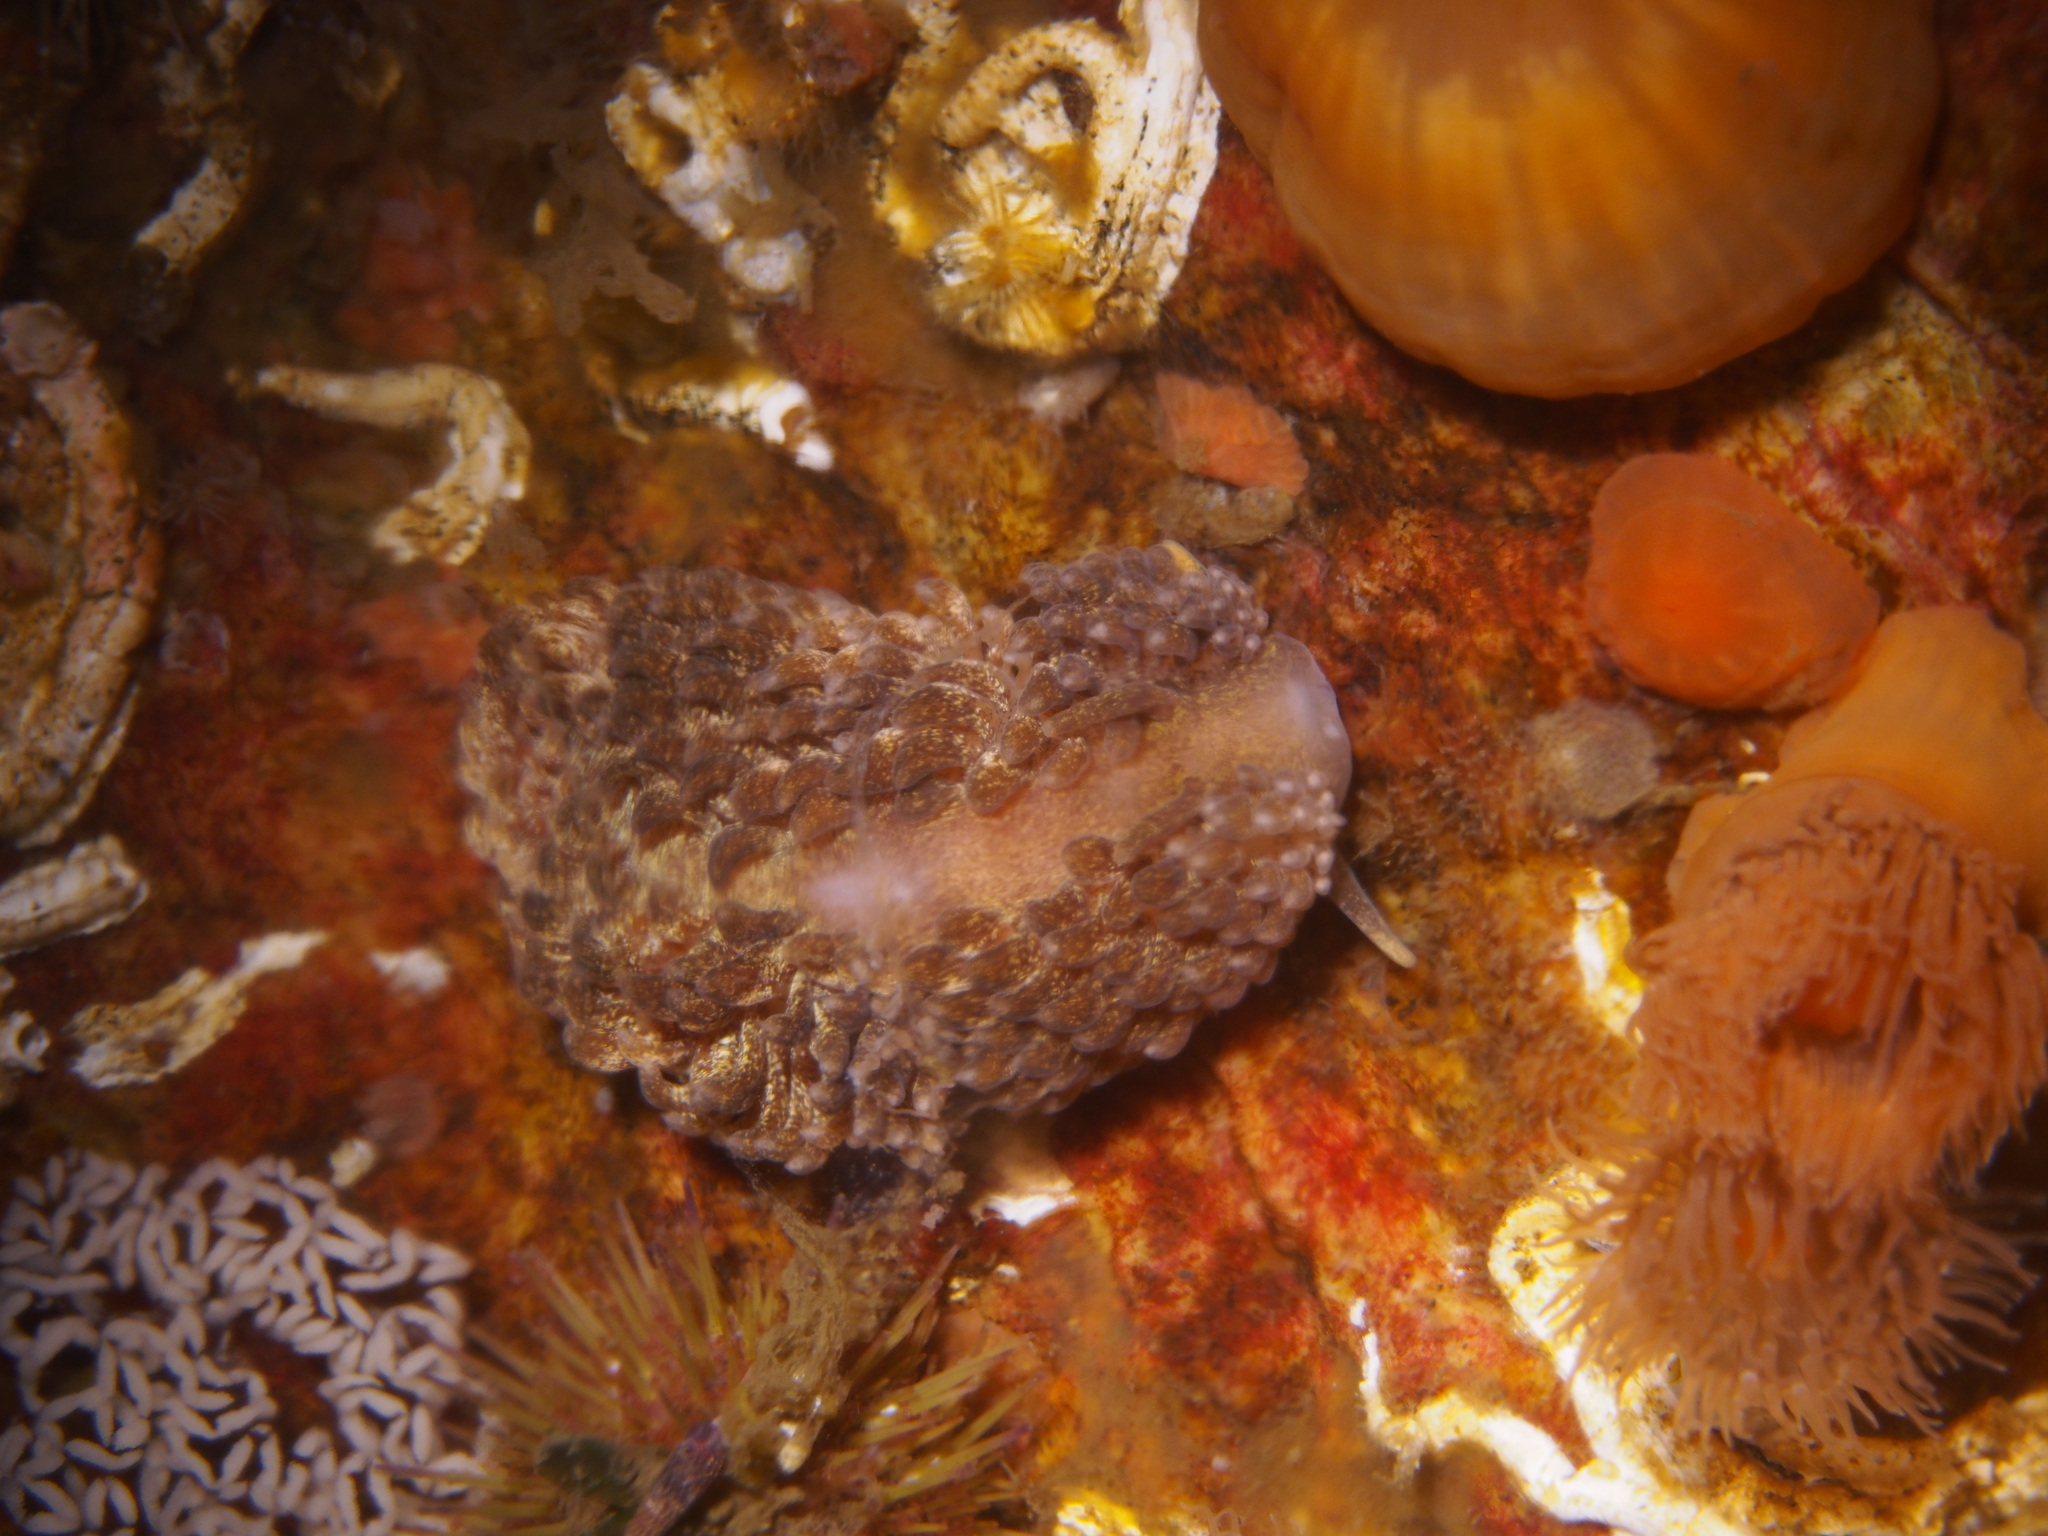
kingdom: Animalia
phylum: Mollusca
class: Gastropoda
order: Nudibranchia
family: Aeolidiidae
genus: Aeolidia
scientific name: Aeolidia papillosa
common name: Common grey sea slug
